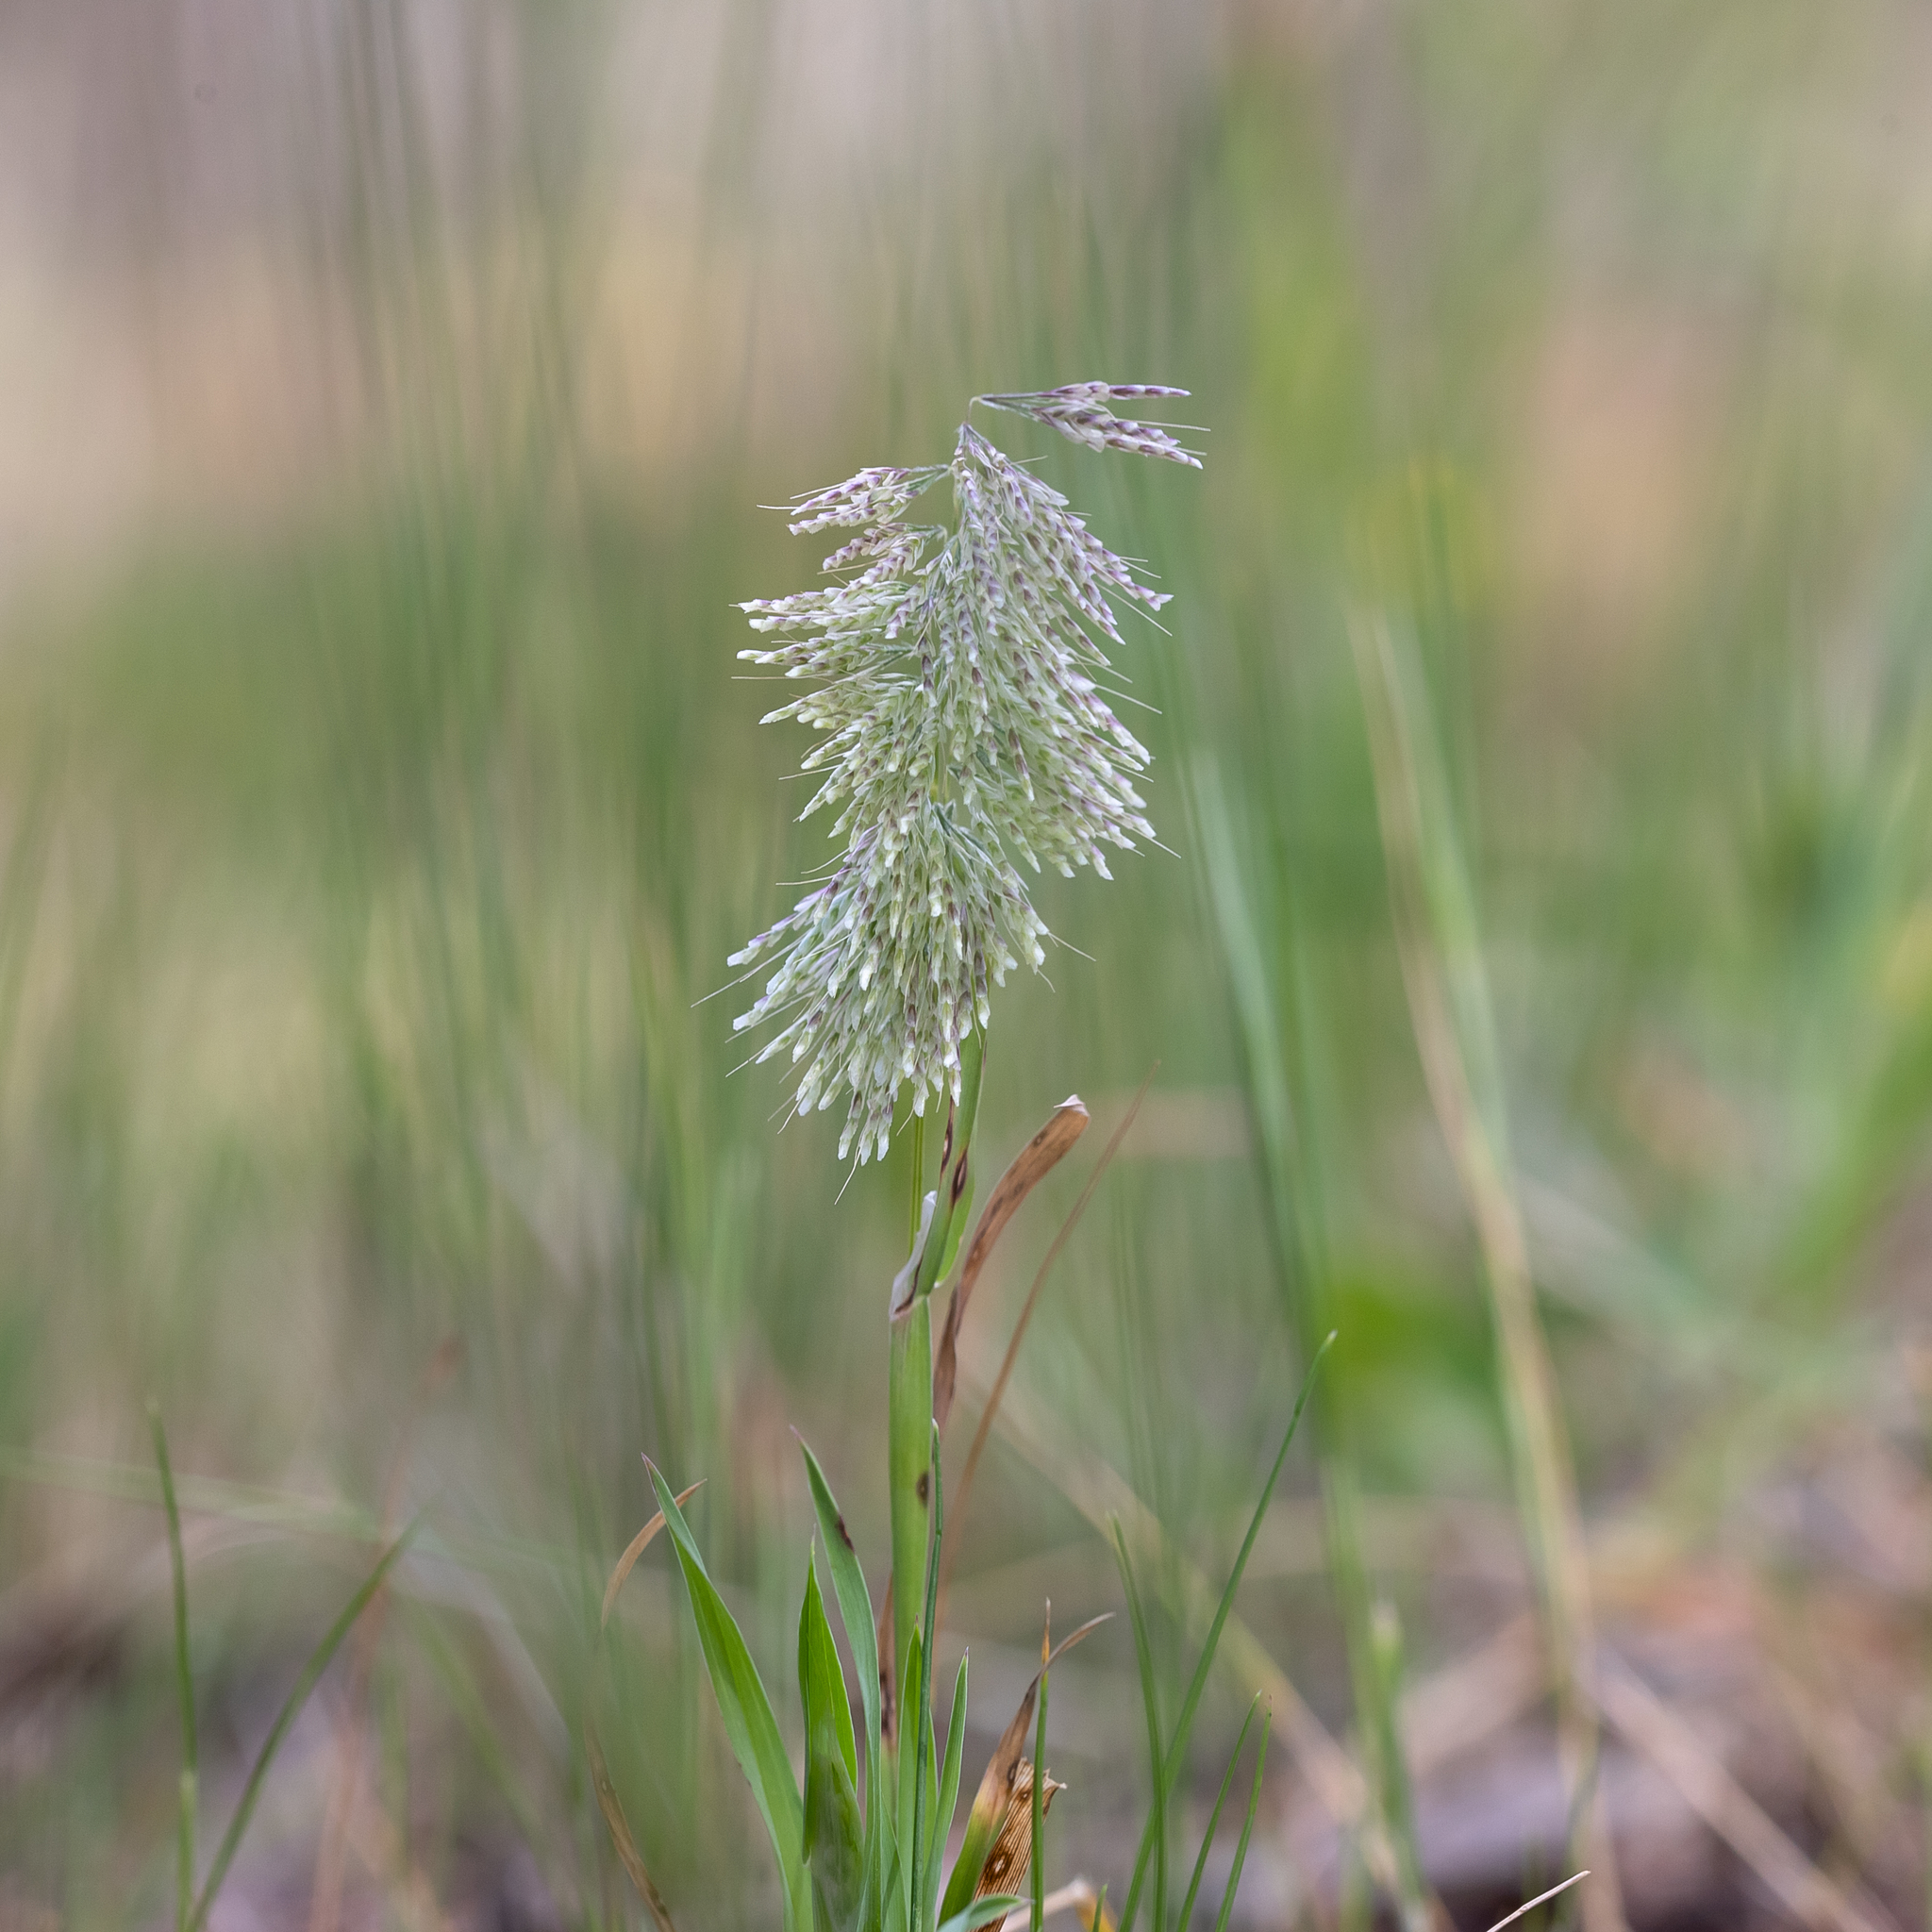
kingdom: Plantae
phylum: Tracheophyta
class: Liliopsida
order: Poales
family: Poaceae
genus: Lamarckia
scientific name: Lamarckia aurea
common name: Golden dog's-tail
